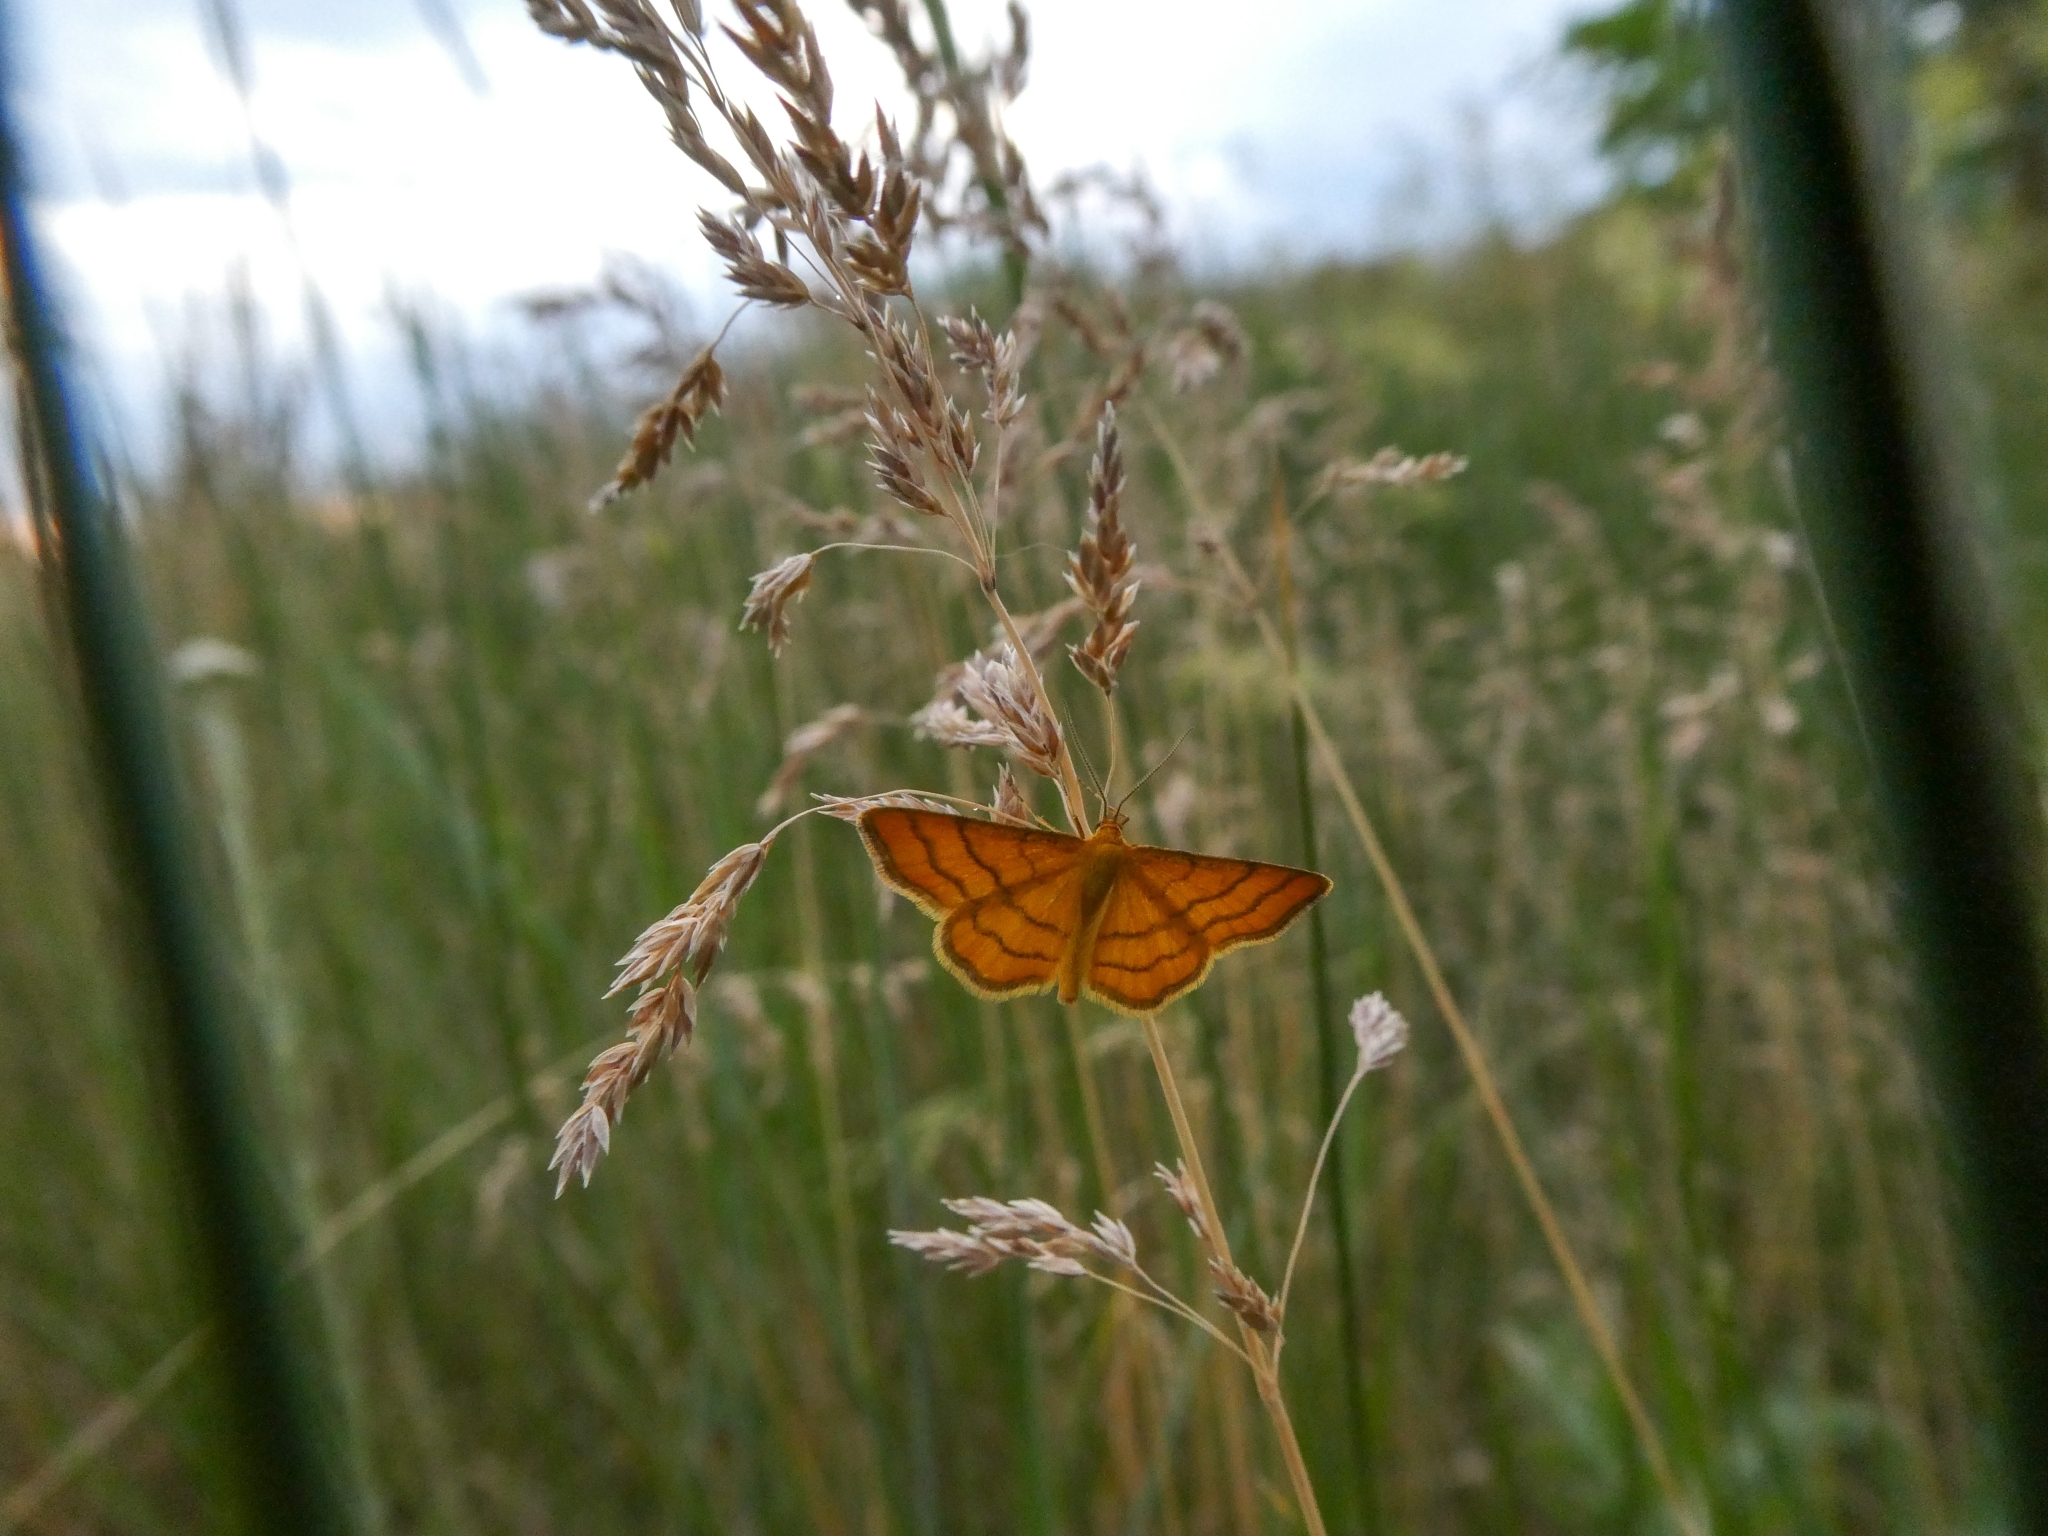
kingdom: Animalia
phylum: Arthropoda
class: Insecta
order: Lepidoptera
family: Geometridae
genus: Idaea
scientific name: Idaea aureolaria
